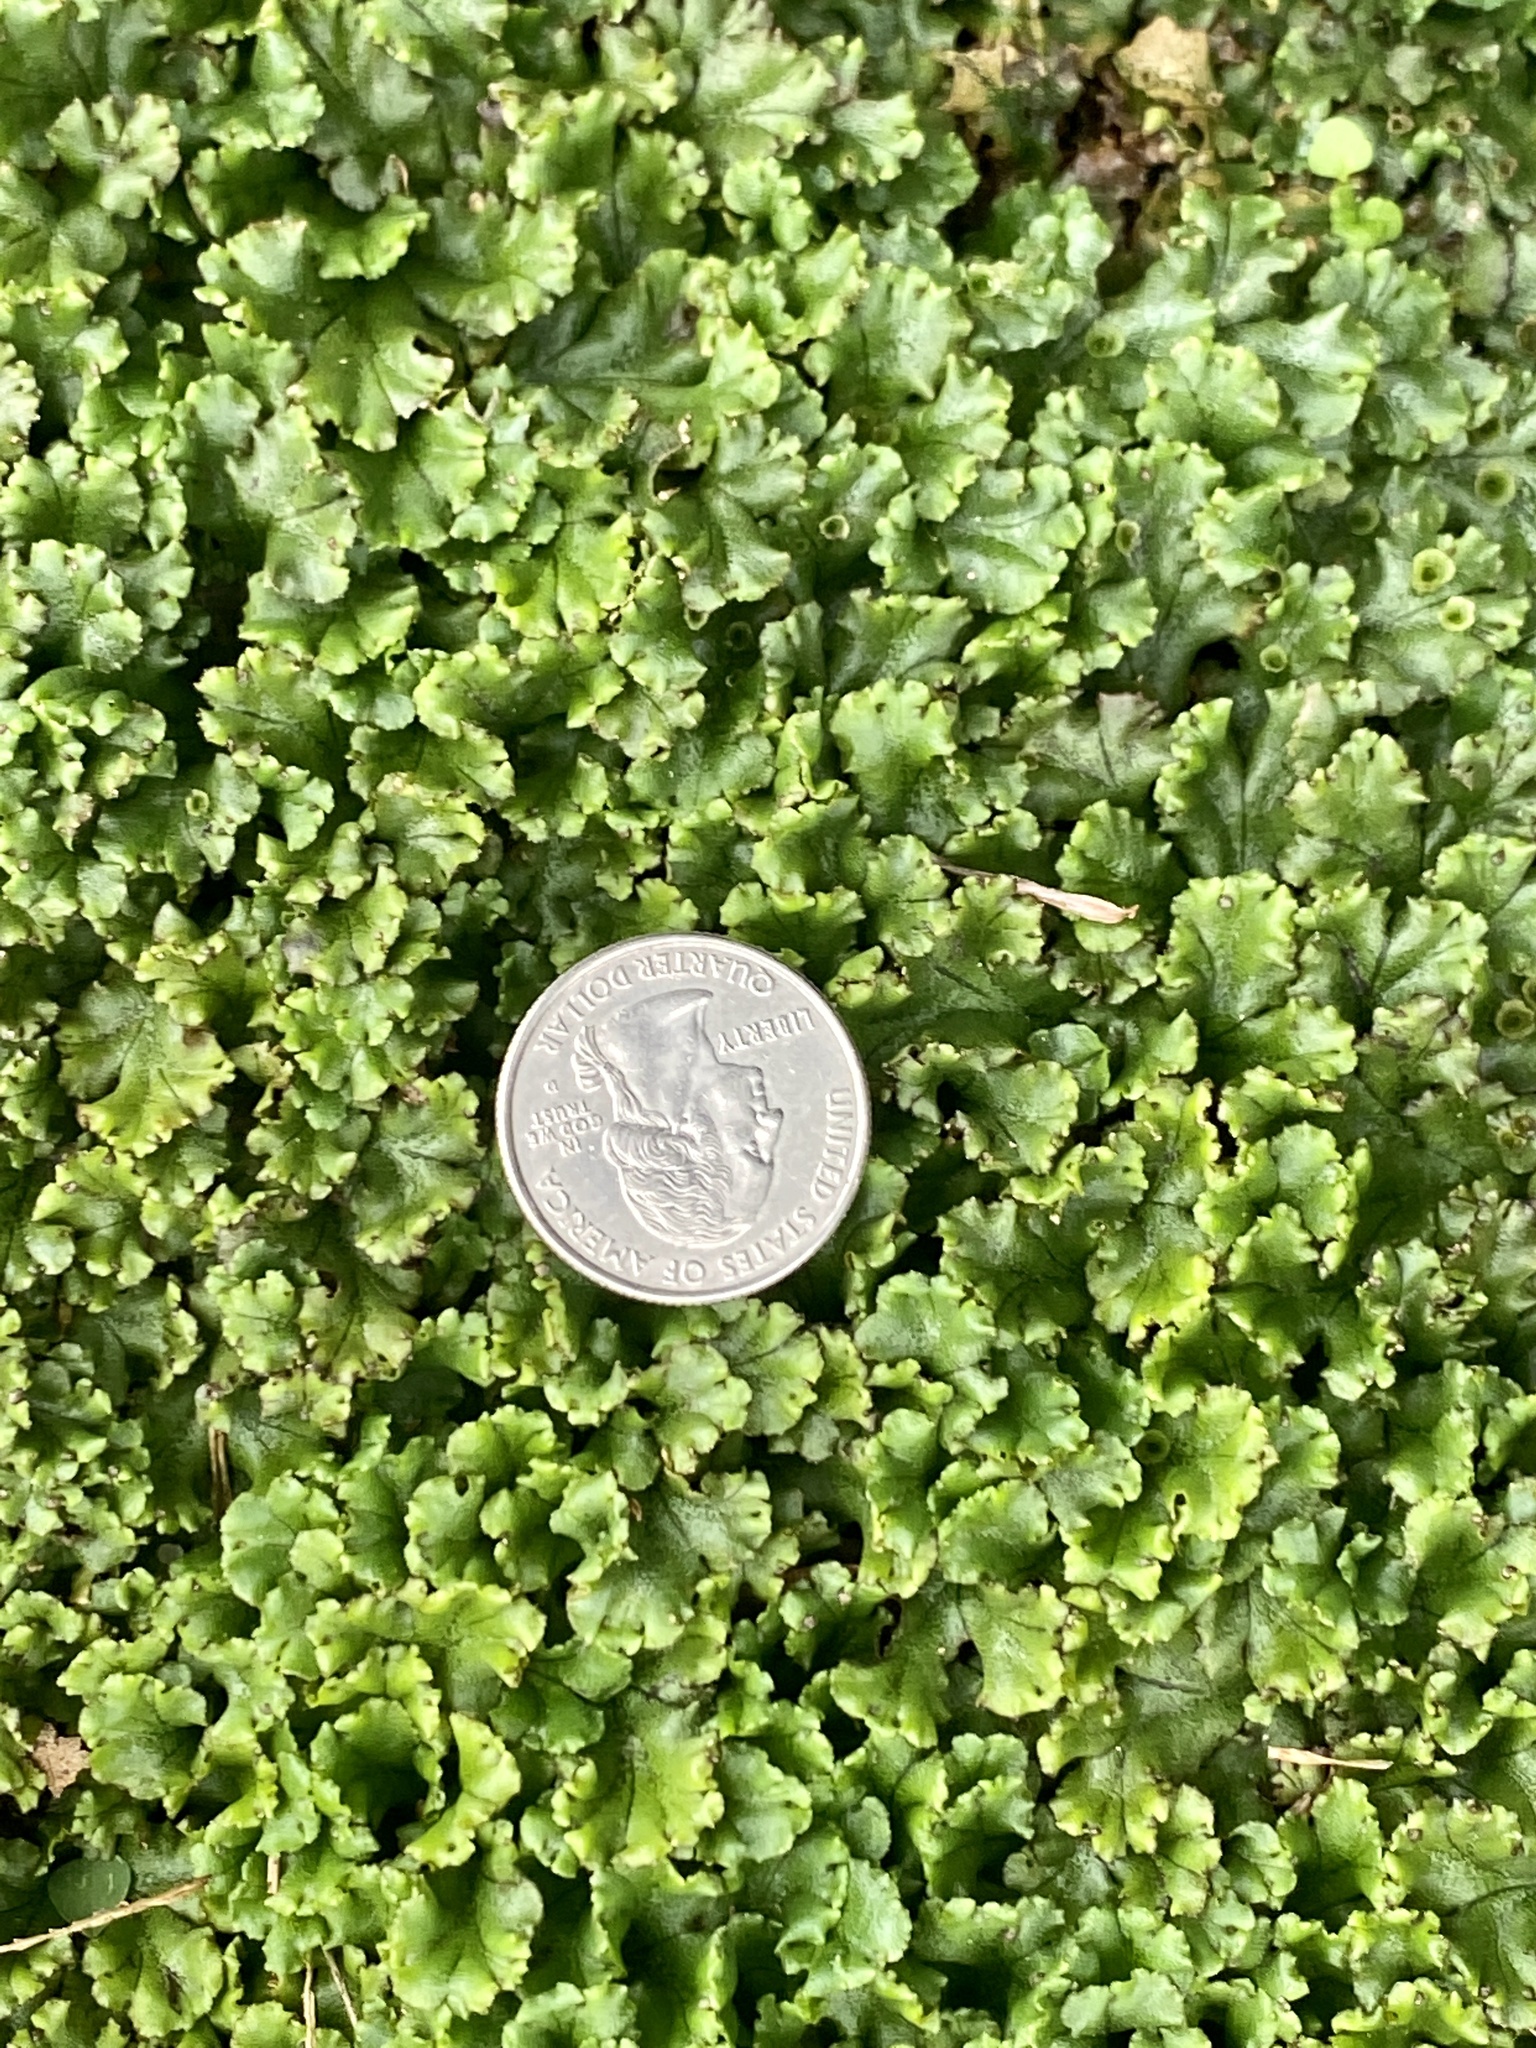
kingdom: Plantae
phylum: Marchantiophyta
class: Marchantiopsida
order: Marchantiales
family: Marchantiaceae
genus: Marchantia
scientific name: Marchantia polymorpha
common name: Common liverwort
